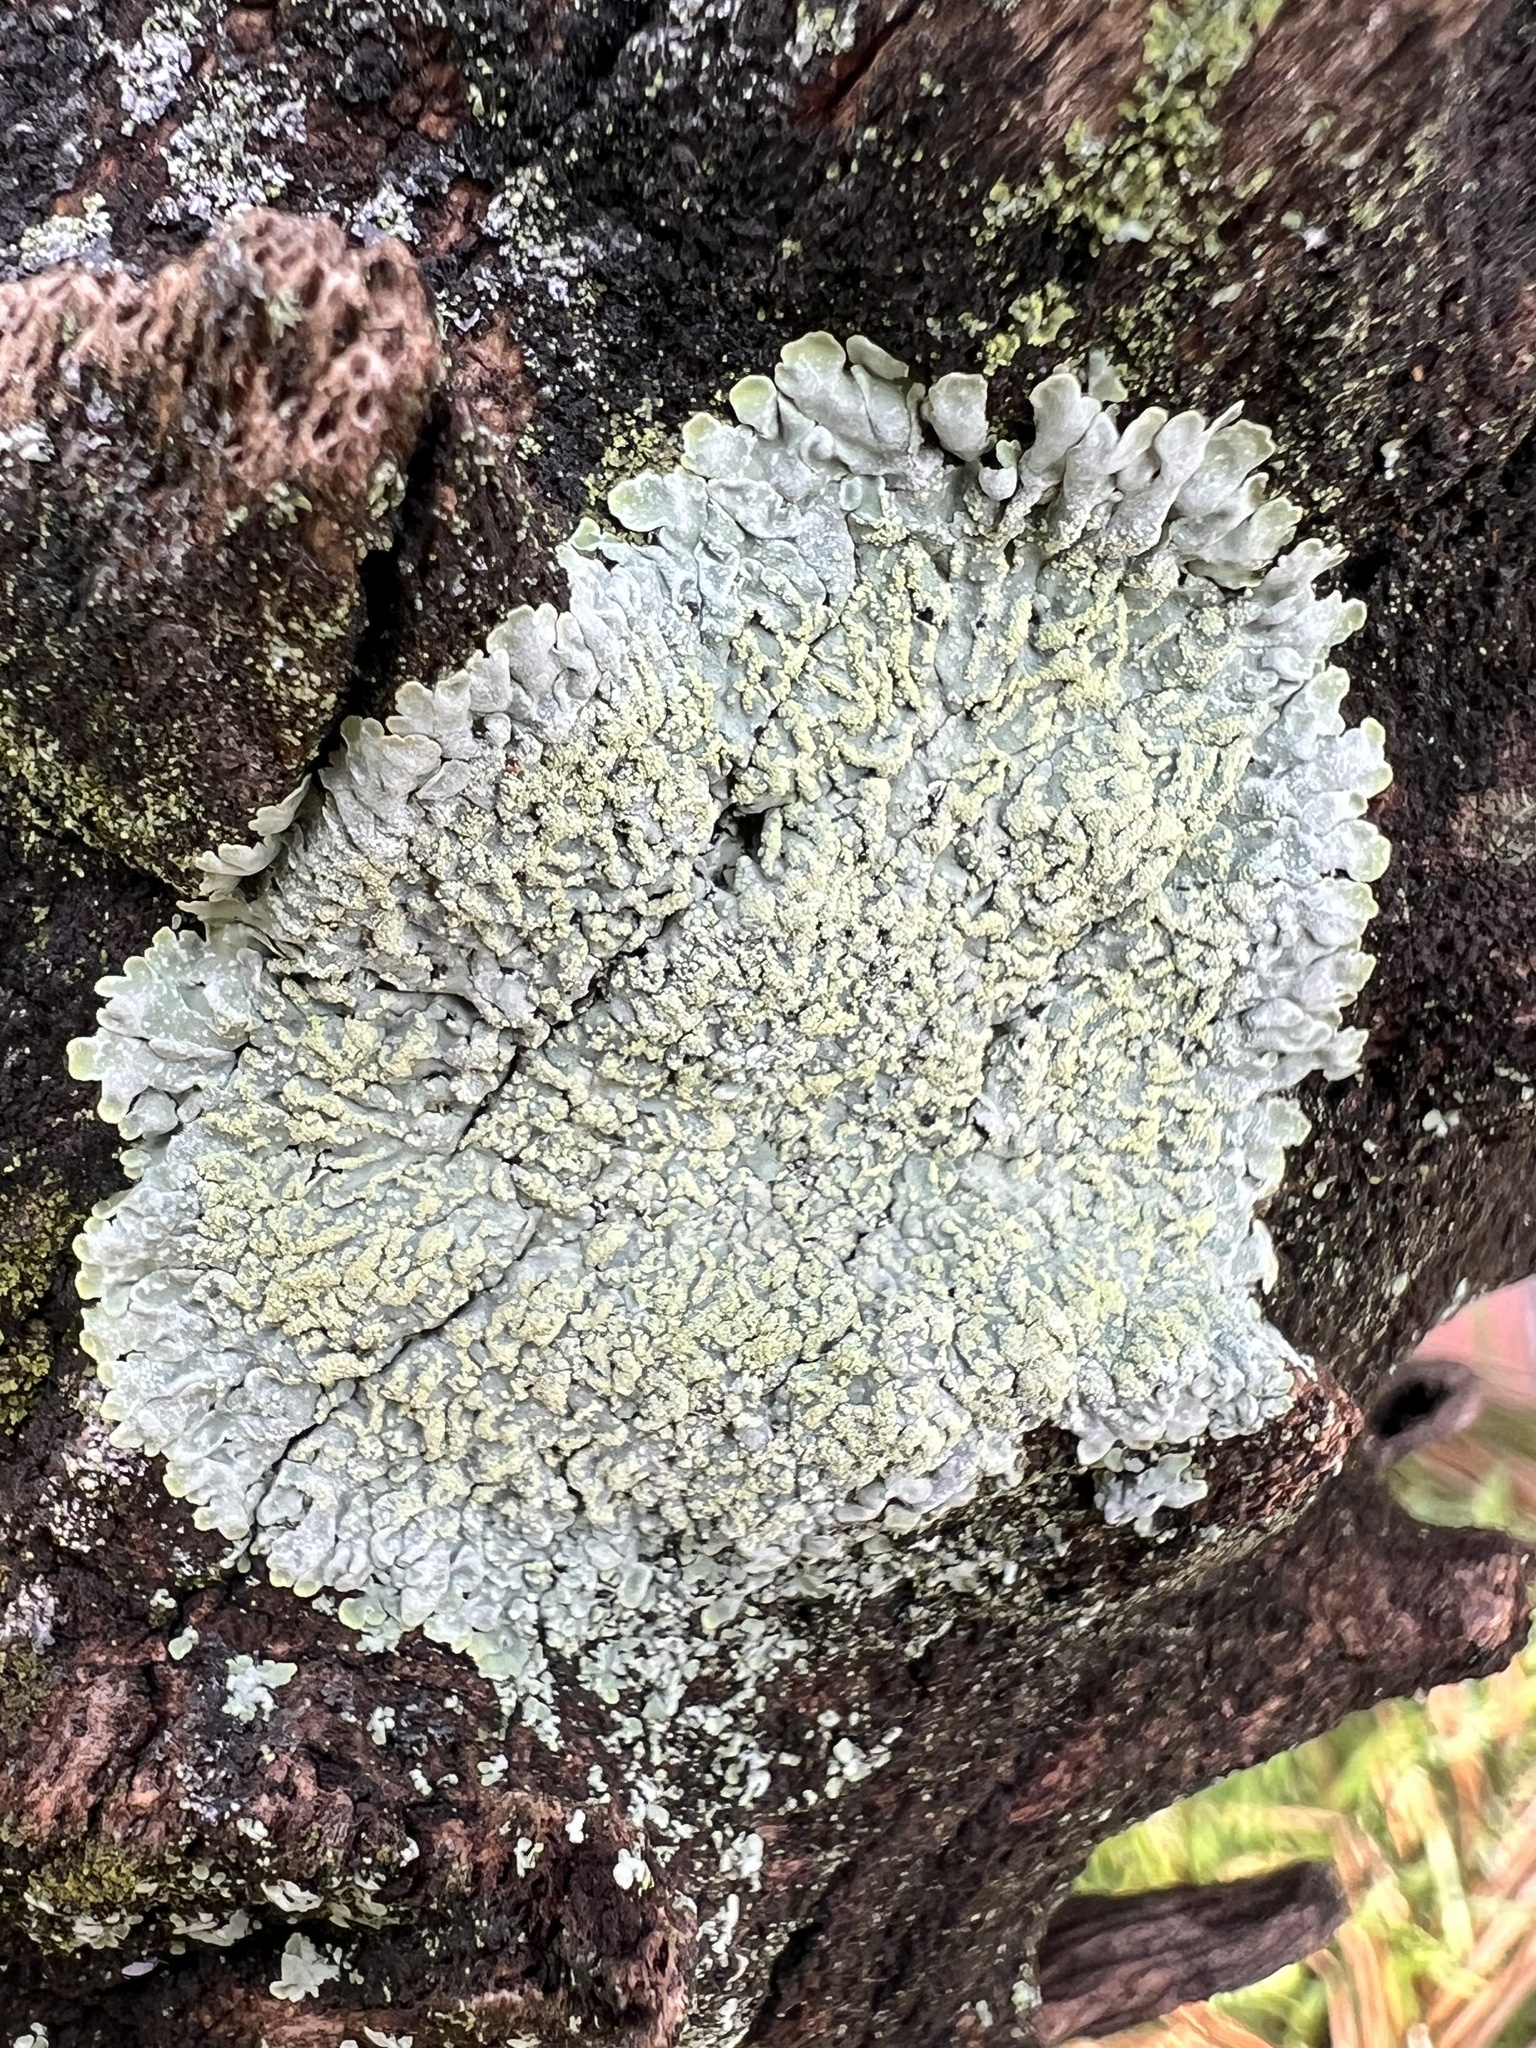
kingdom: Fungi
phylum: Ascomycota
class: Lecanoromycetes
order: Lecanorales
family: Parmeliaceae
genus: Punctelia
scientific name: Punctelia rudecta
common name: Rough speckled shield lichen
